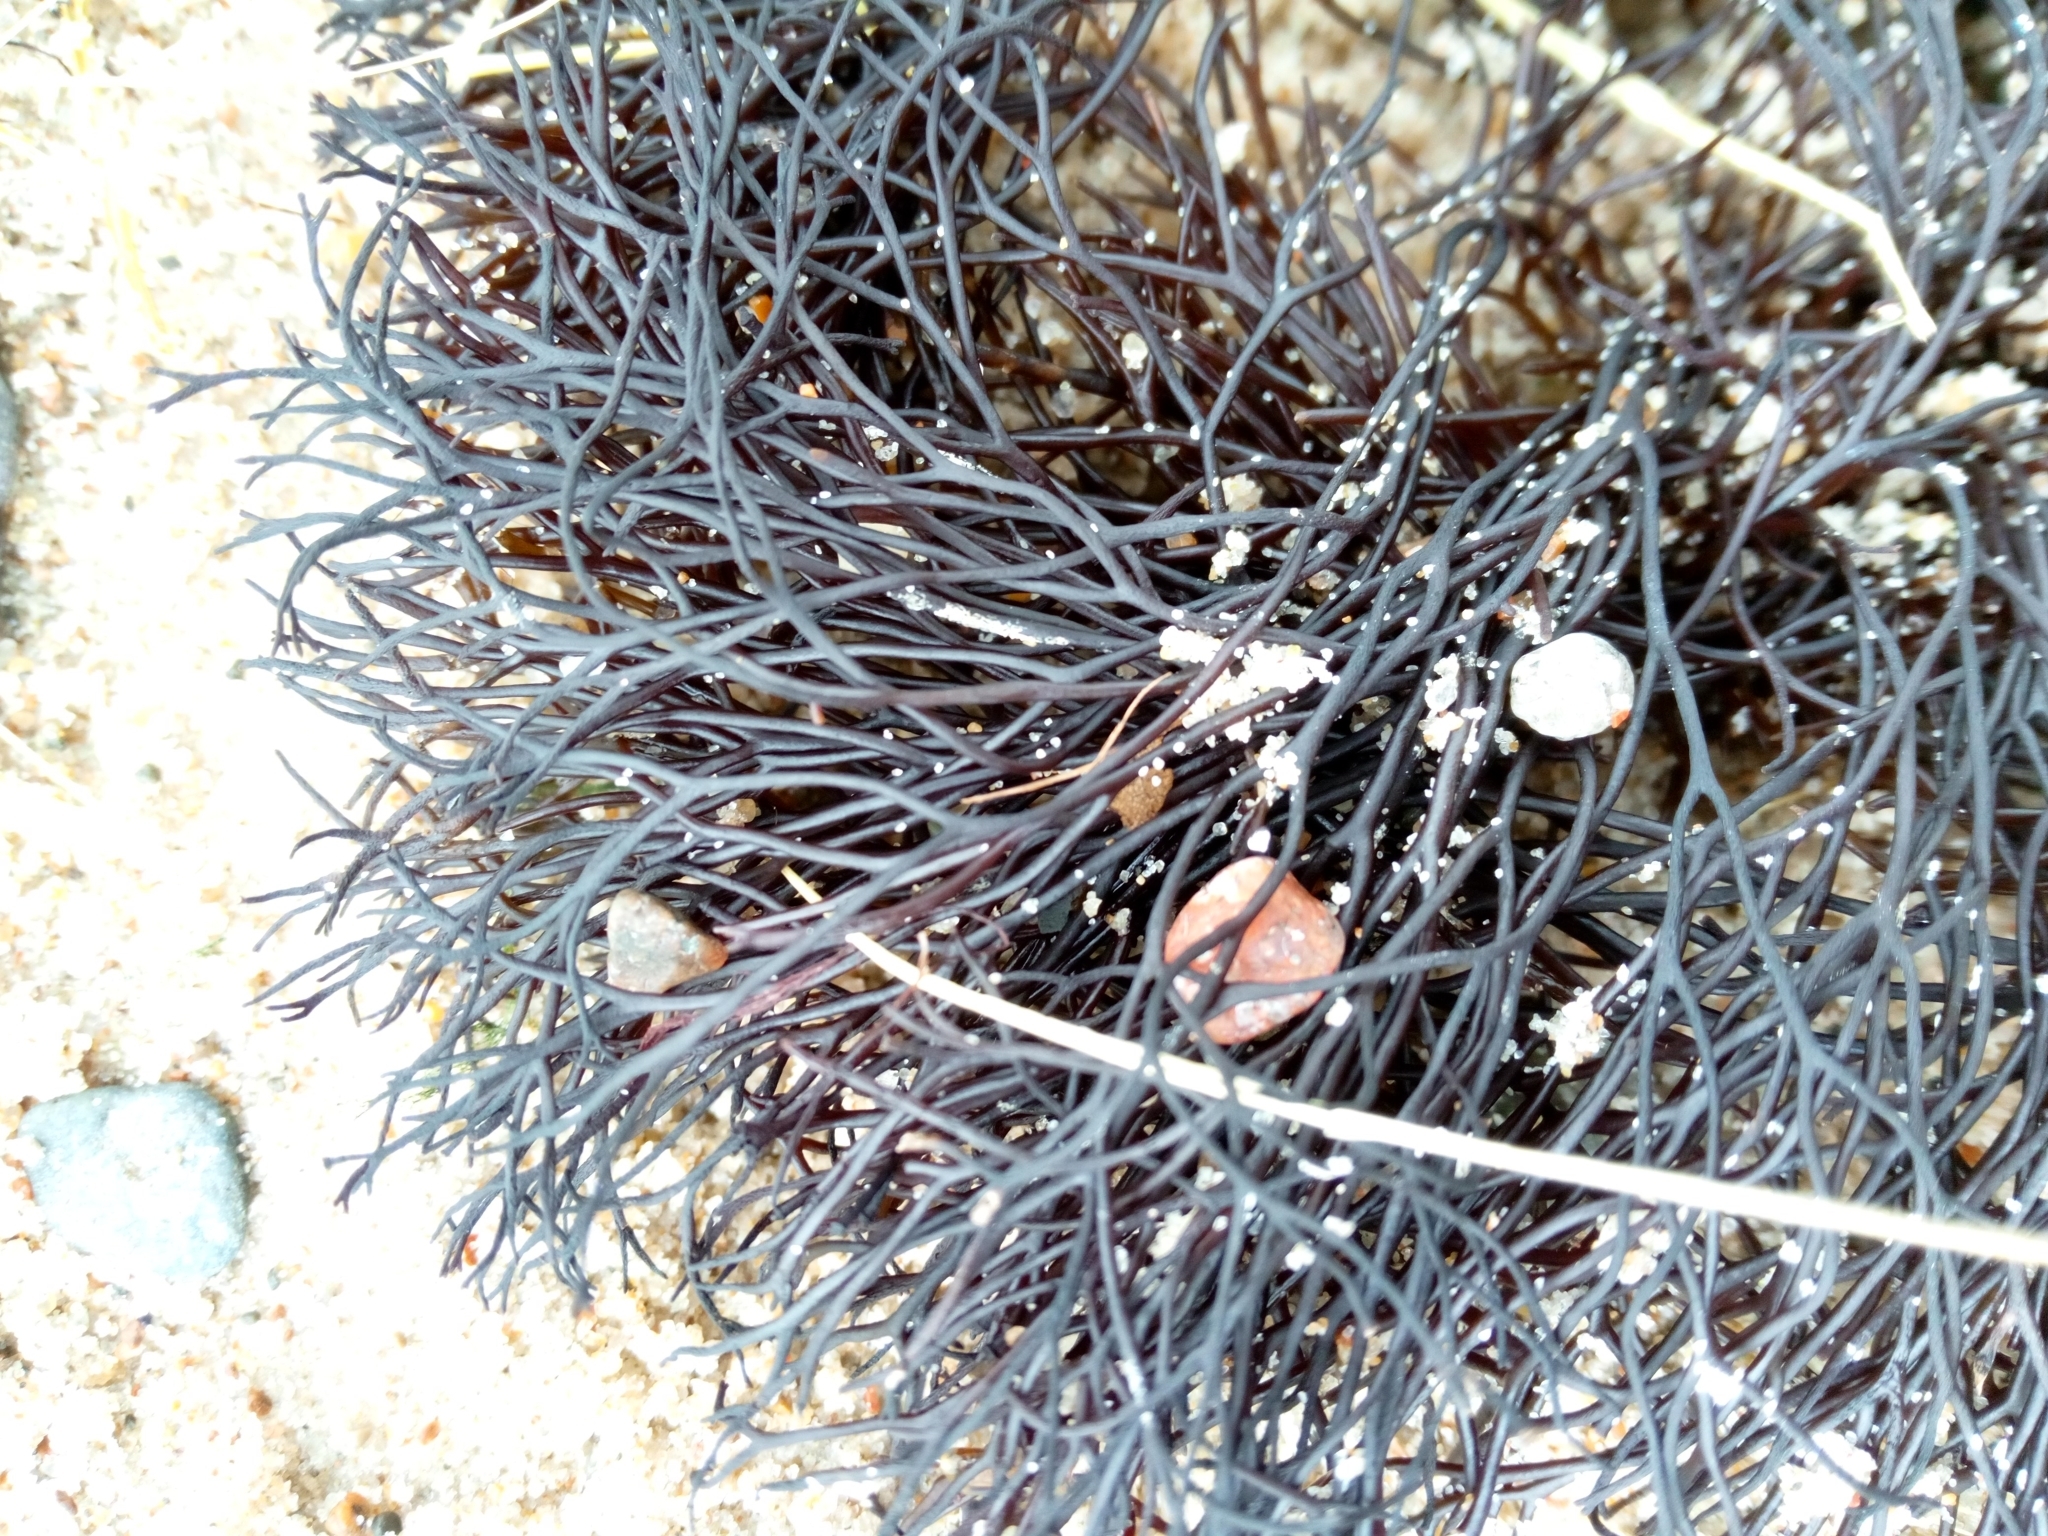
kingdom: Plantae
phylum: Rhodophyta
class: Florideophyceae
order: Gigartinales
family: Furcellariaceae
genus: Furcellaria
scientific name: Furcellaria lumbricalis
